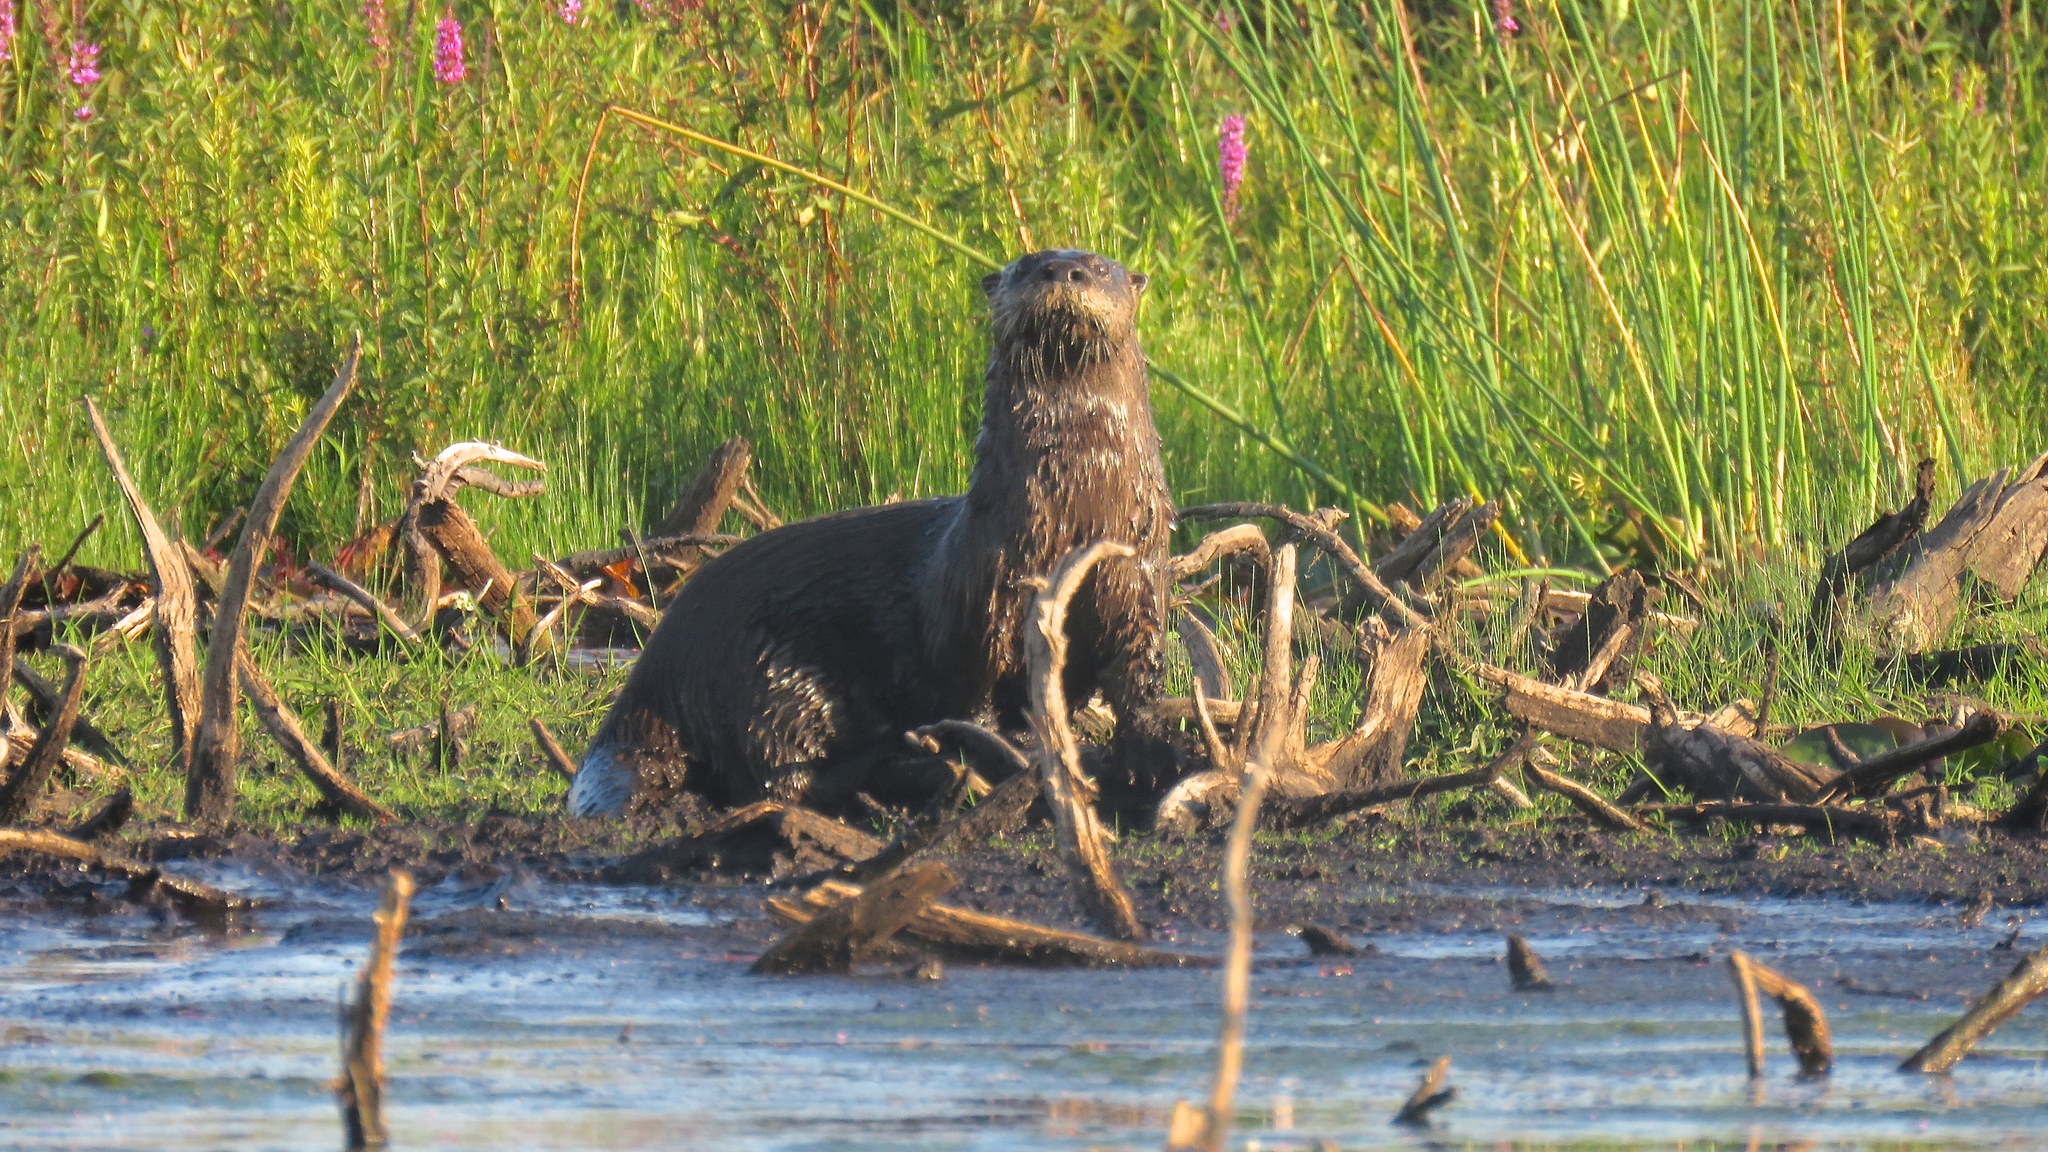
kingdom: Animalia
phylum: Chordata
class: Mammalia
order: Carnivora
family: Mustelidae
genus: Lontra
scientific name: Lontra canadensis
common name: North american river otter
